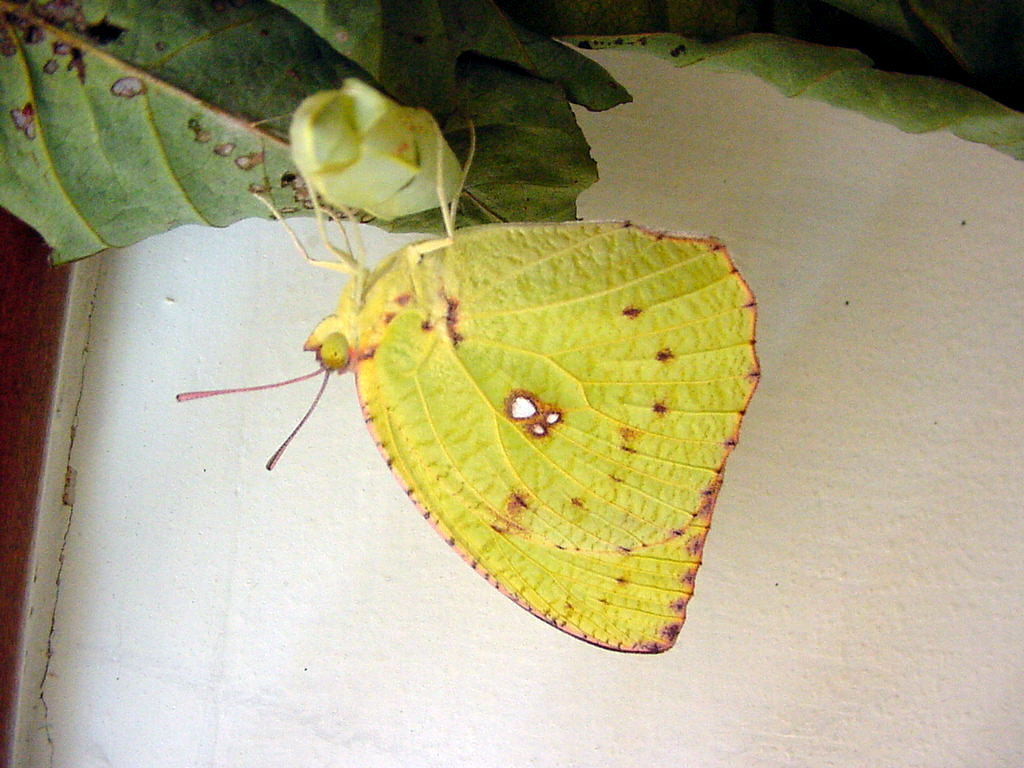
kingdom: Animalia
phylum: Arthropoda
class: Insecta
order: Lepidoptera
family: Pieridae
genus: Catopsilia
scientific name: Catopsilia pyranthe
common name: Mottled emigrant
